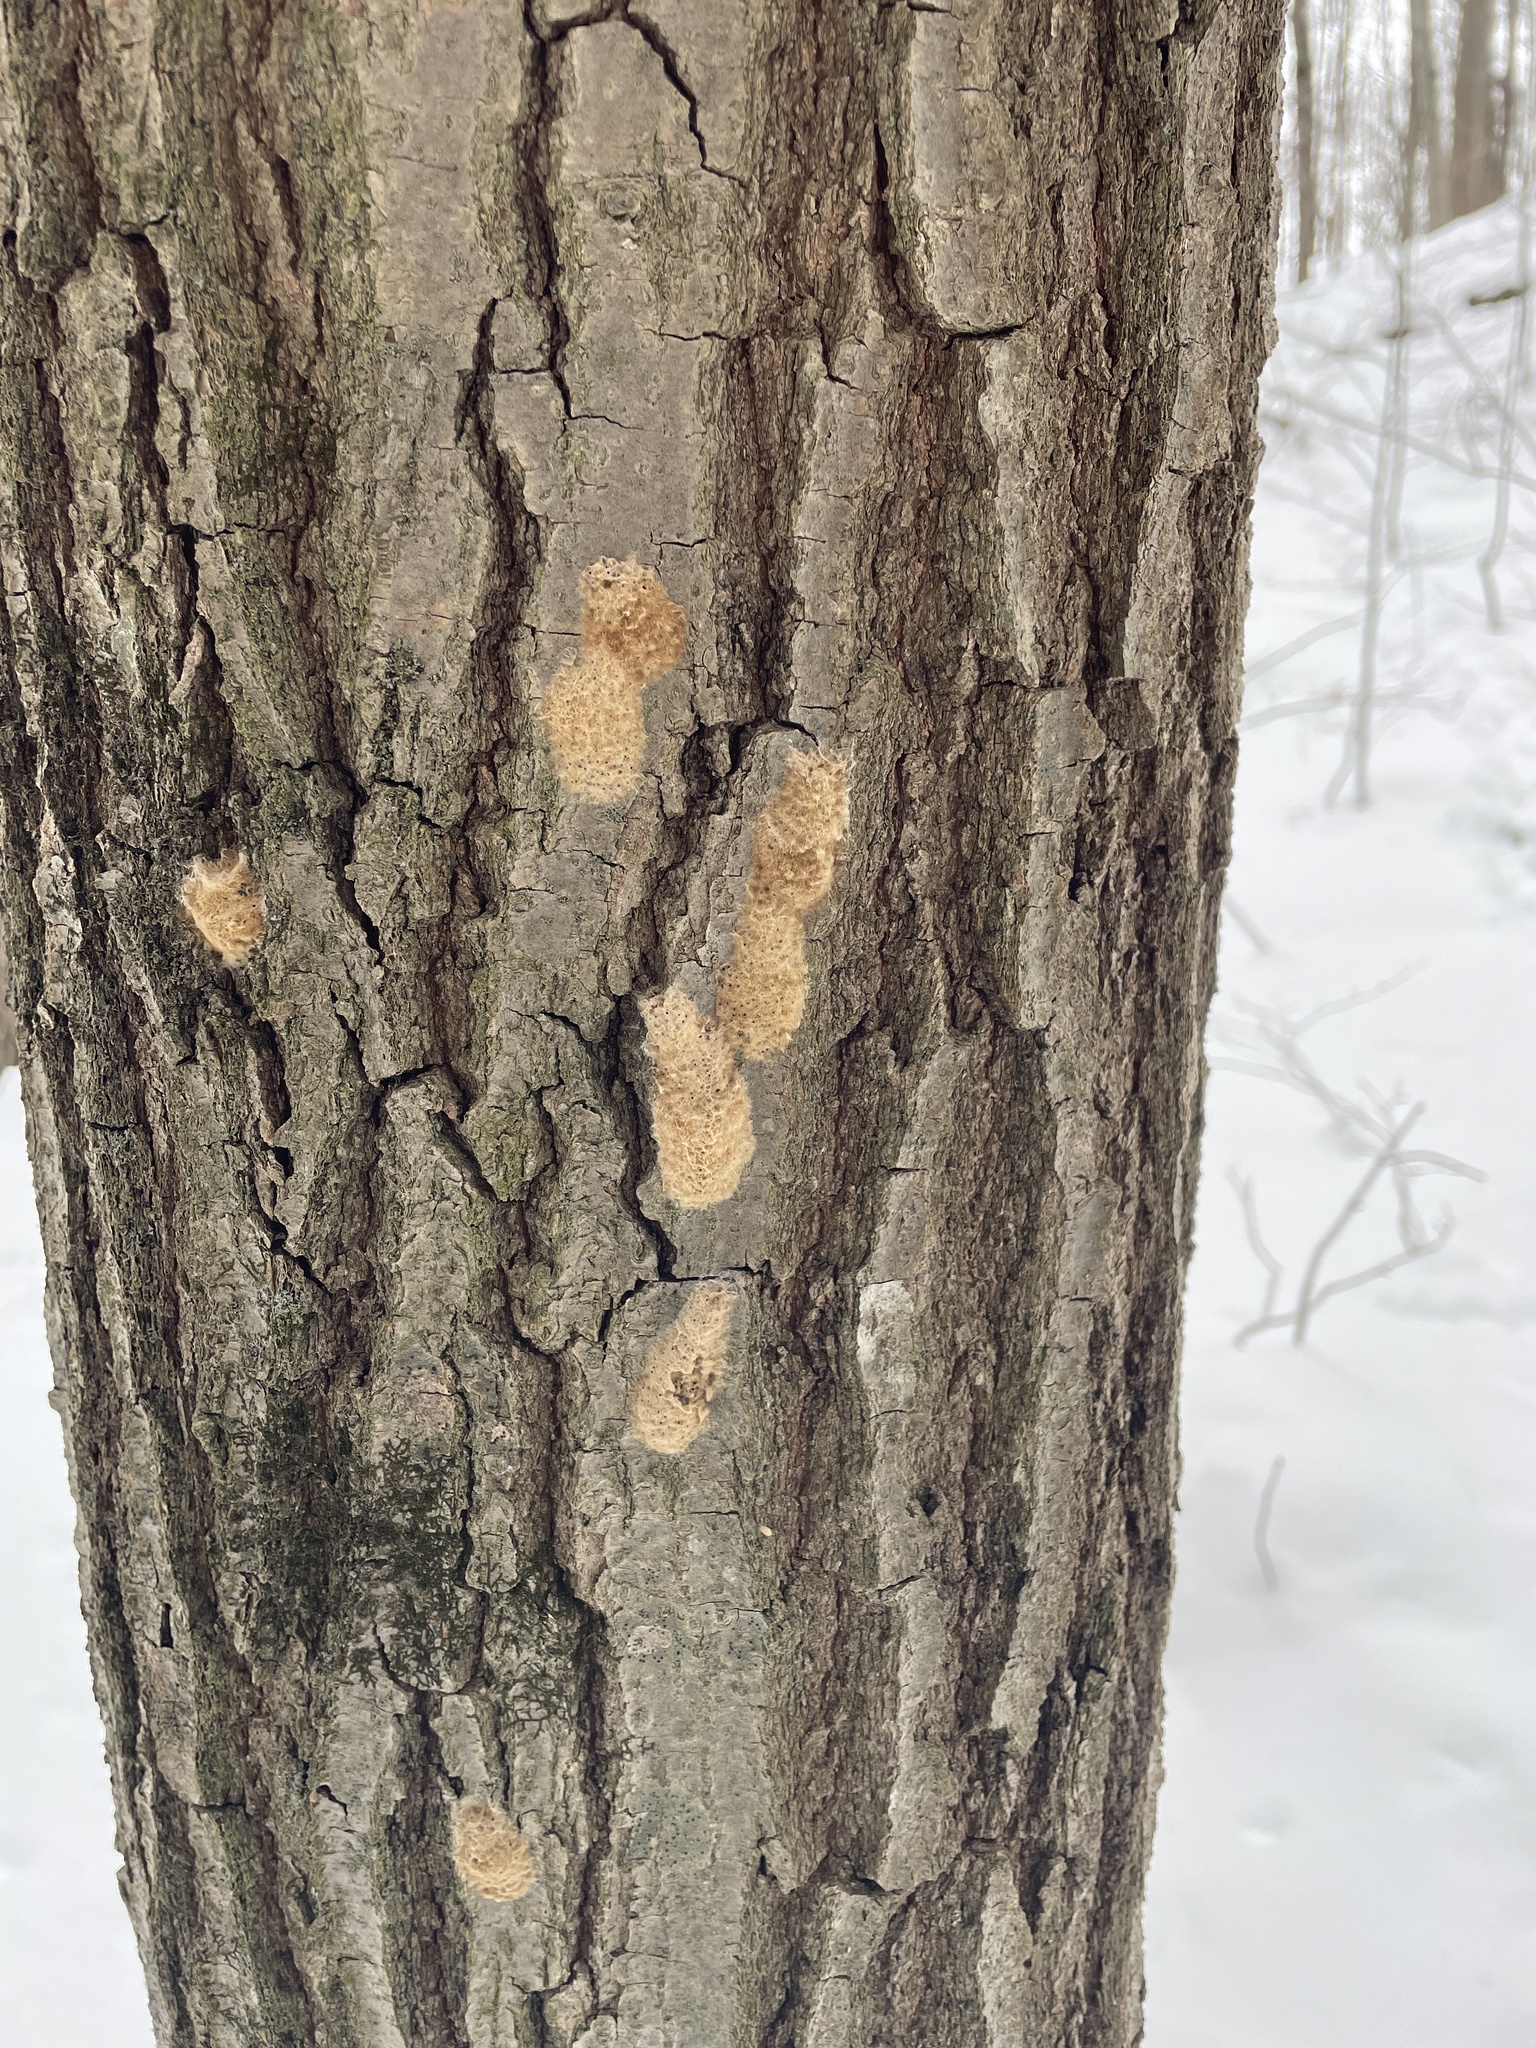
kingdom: Animalia
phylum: Arthropoda
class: Insecta
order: Lepidoptera
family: Erebidae
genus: Lymantria
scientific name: Lymantria dispar
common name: Gypsy moth
